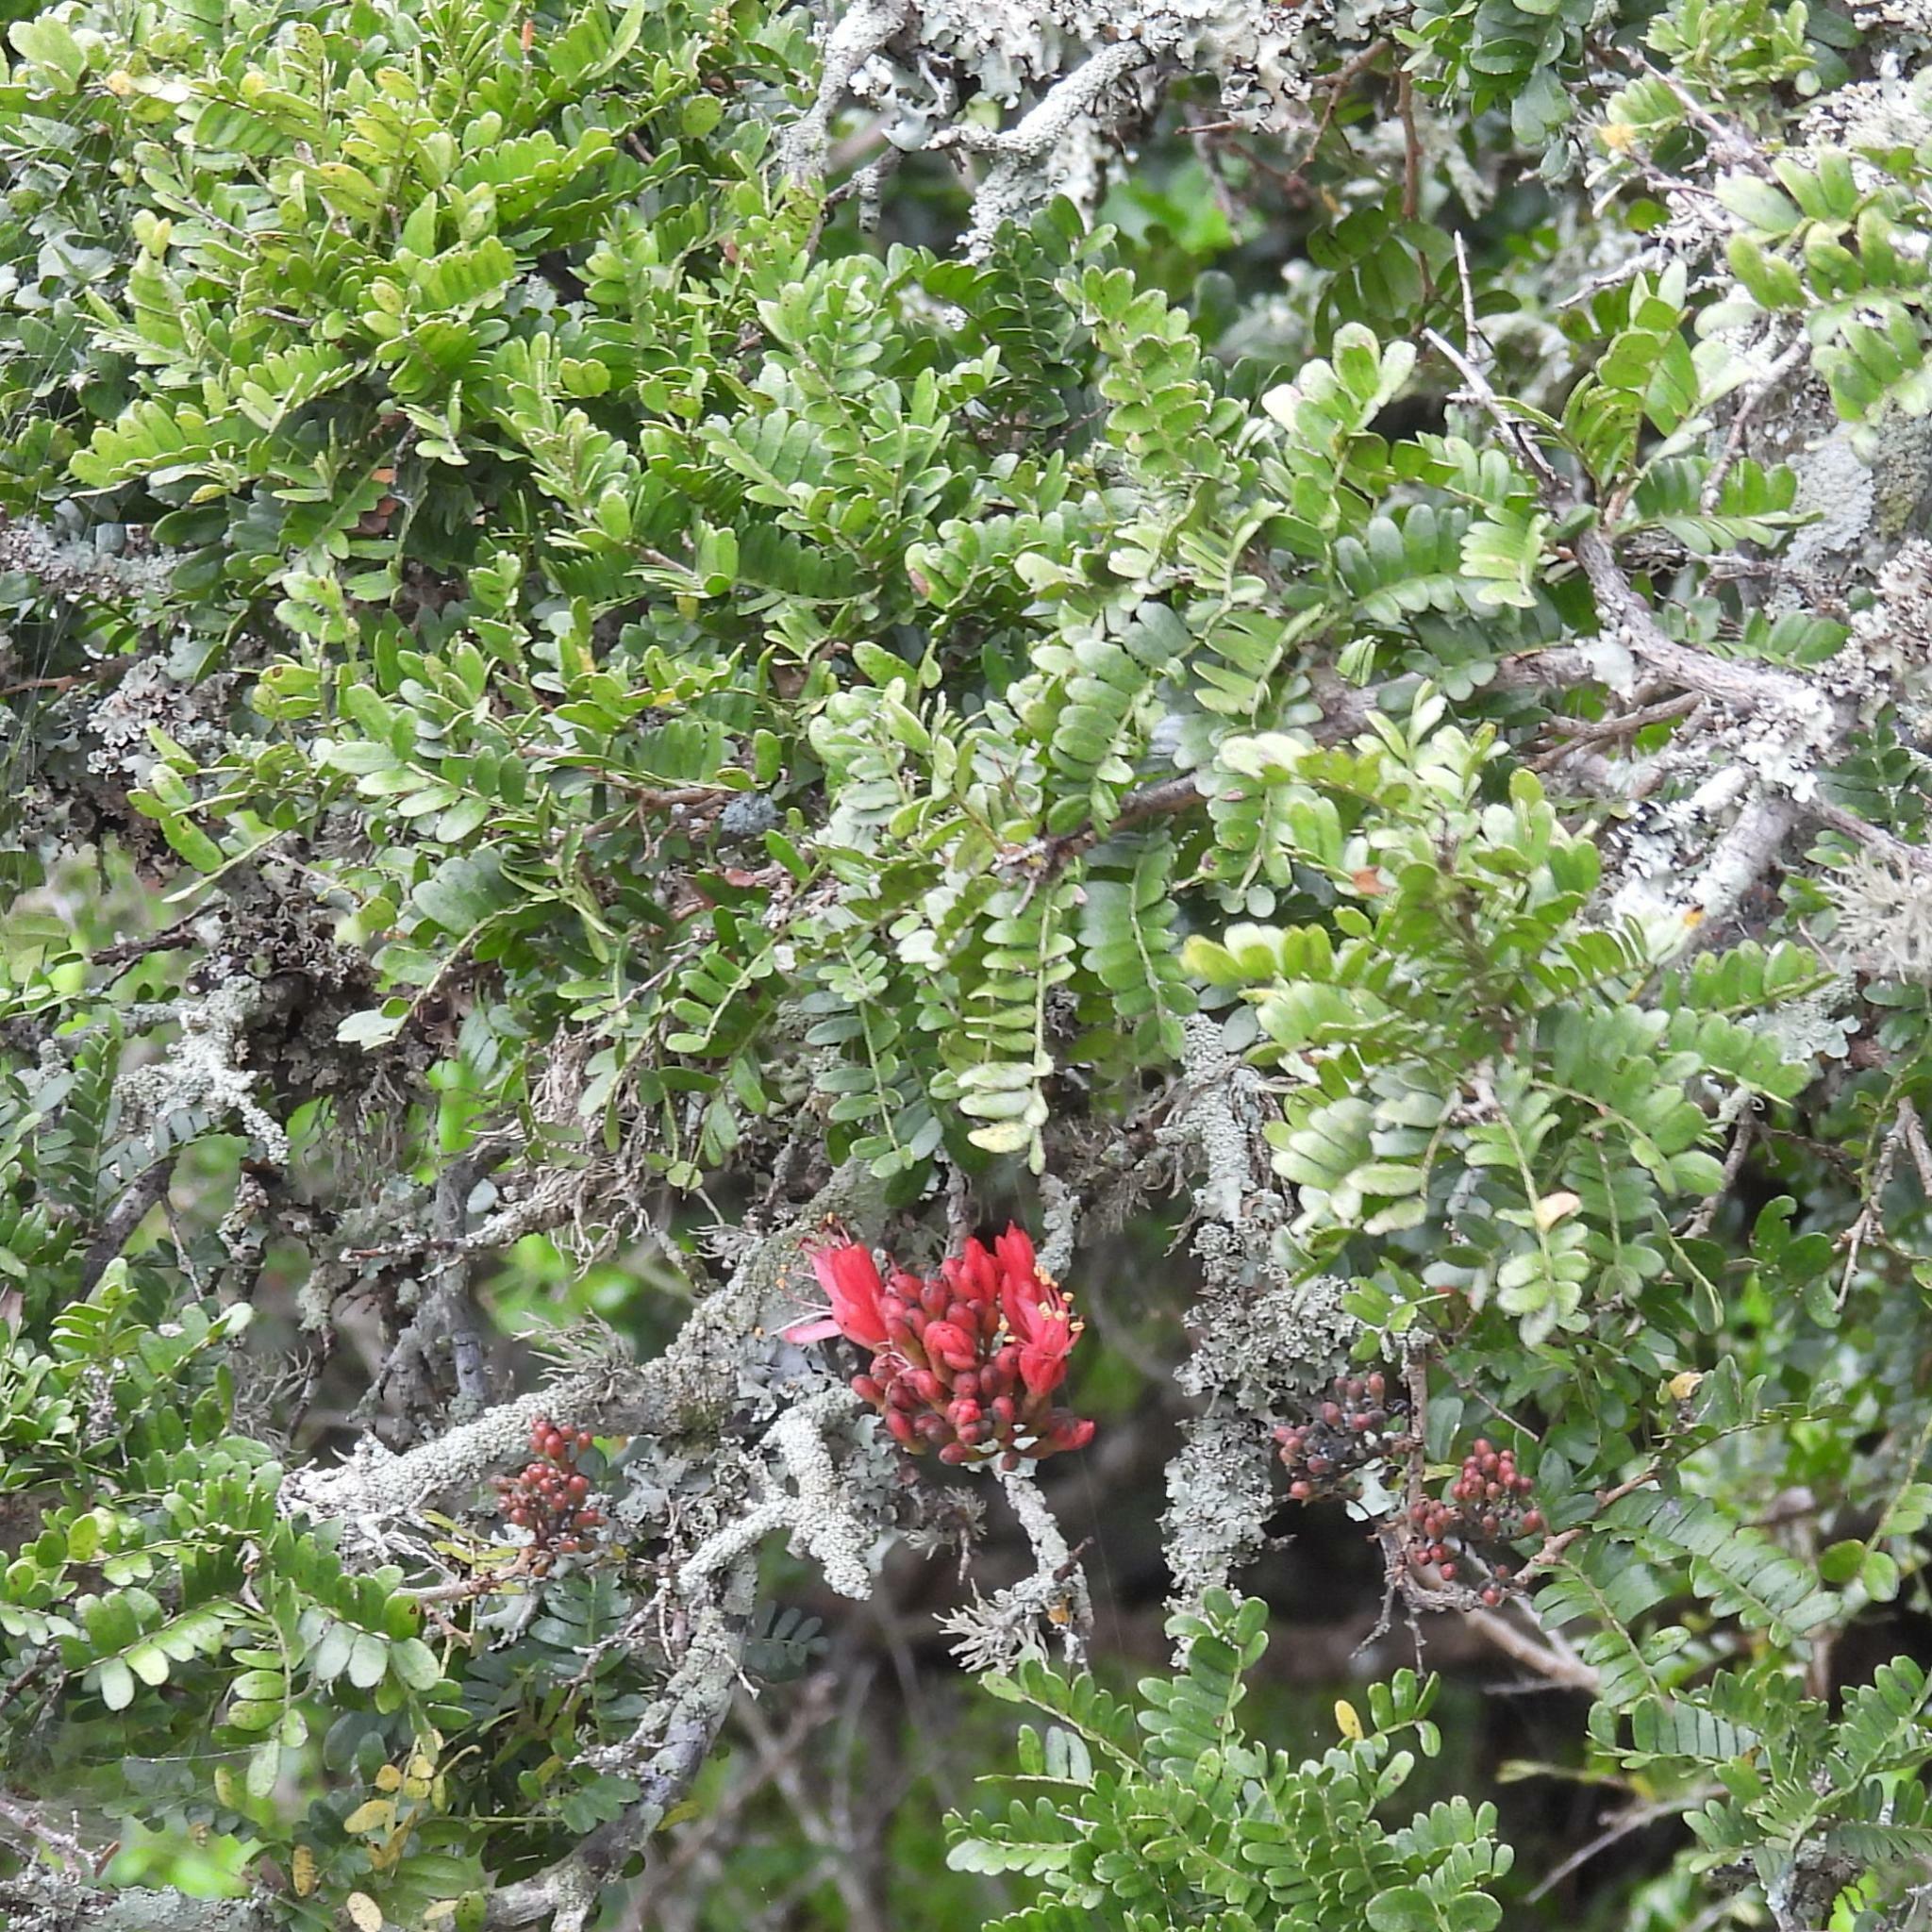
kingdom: Plantae
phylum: Tracheophyta
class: Magnoliopsida
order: Fabales
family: Fabaceae
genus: Schotia
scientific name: Schotia afra
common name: Hottentot's bean
